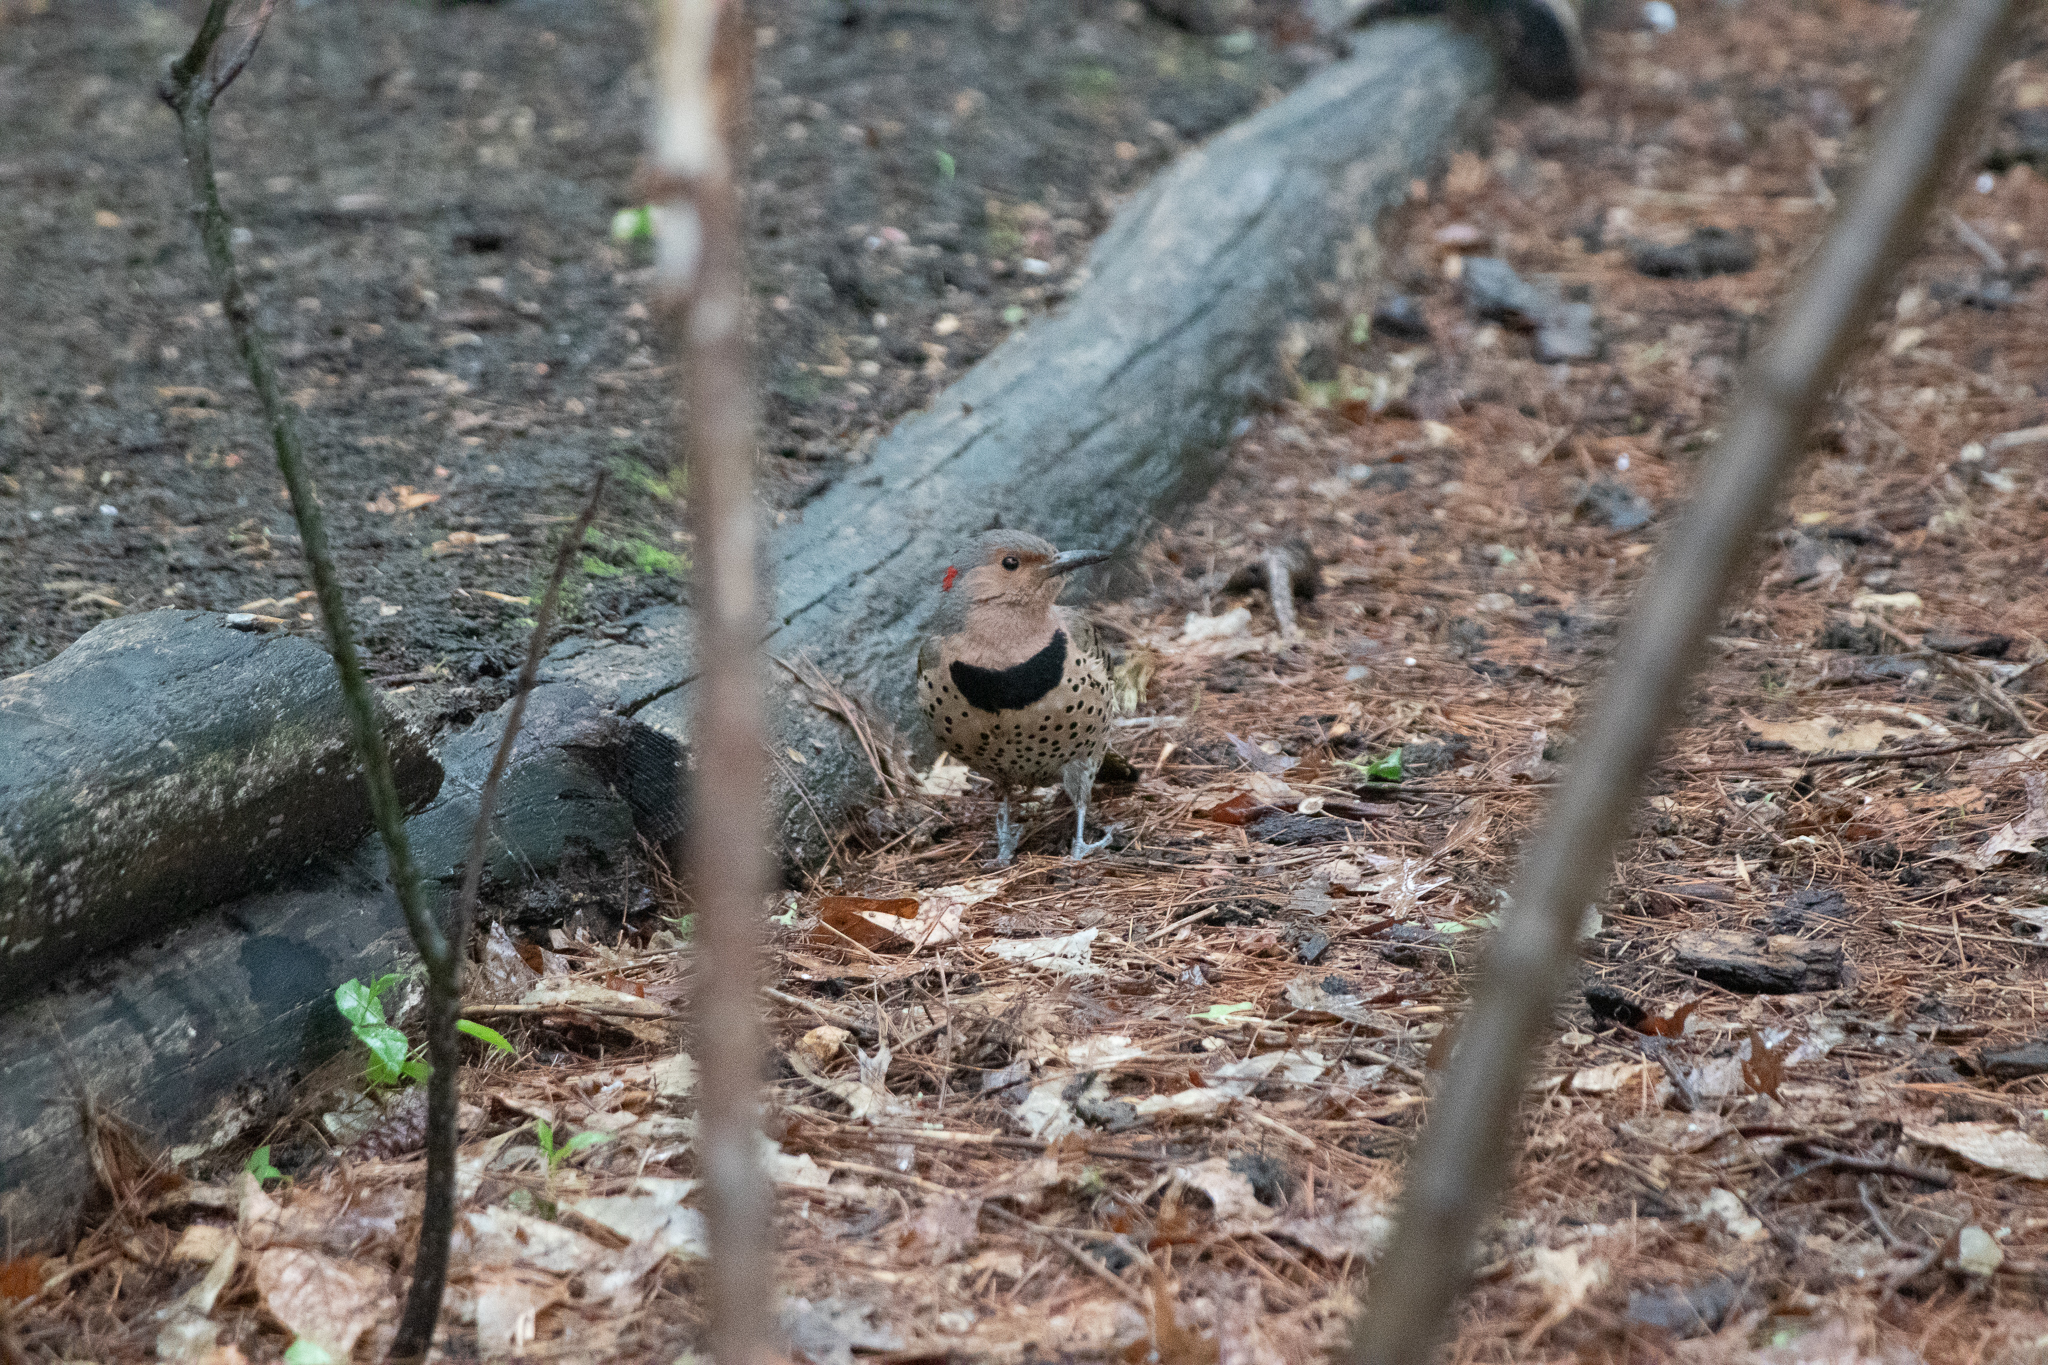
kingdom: Animalia
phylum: Chordata
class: Aves
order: Piciformes
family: Picidae
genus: Colaptes
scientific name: Colaptes auratus
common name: Northern flicker
